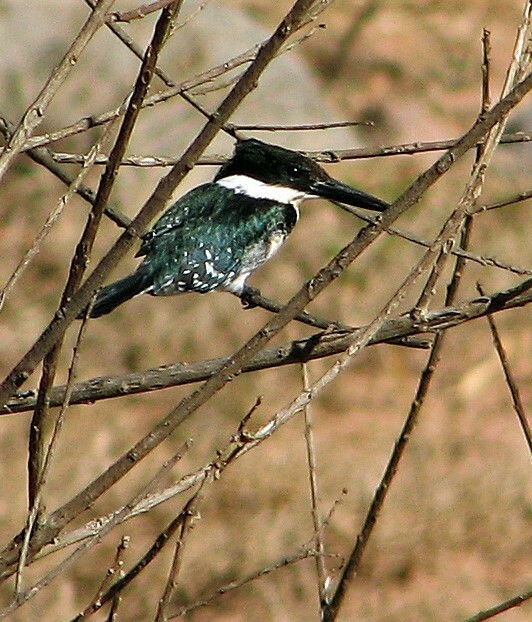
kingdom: Animalia
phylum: Chordata
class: Aves
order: Coraciiformes
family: Alcedinidae
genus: Chloroceryle
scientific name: Chloroceryle americana
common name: Green kingfisher
